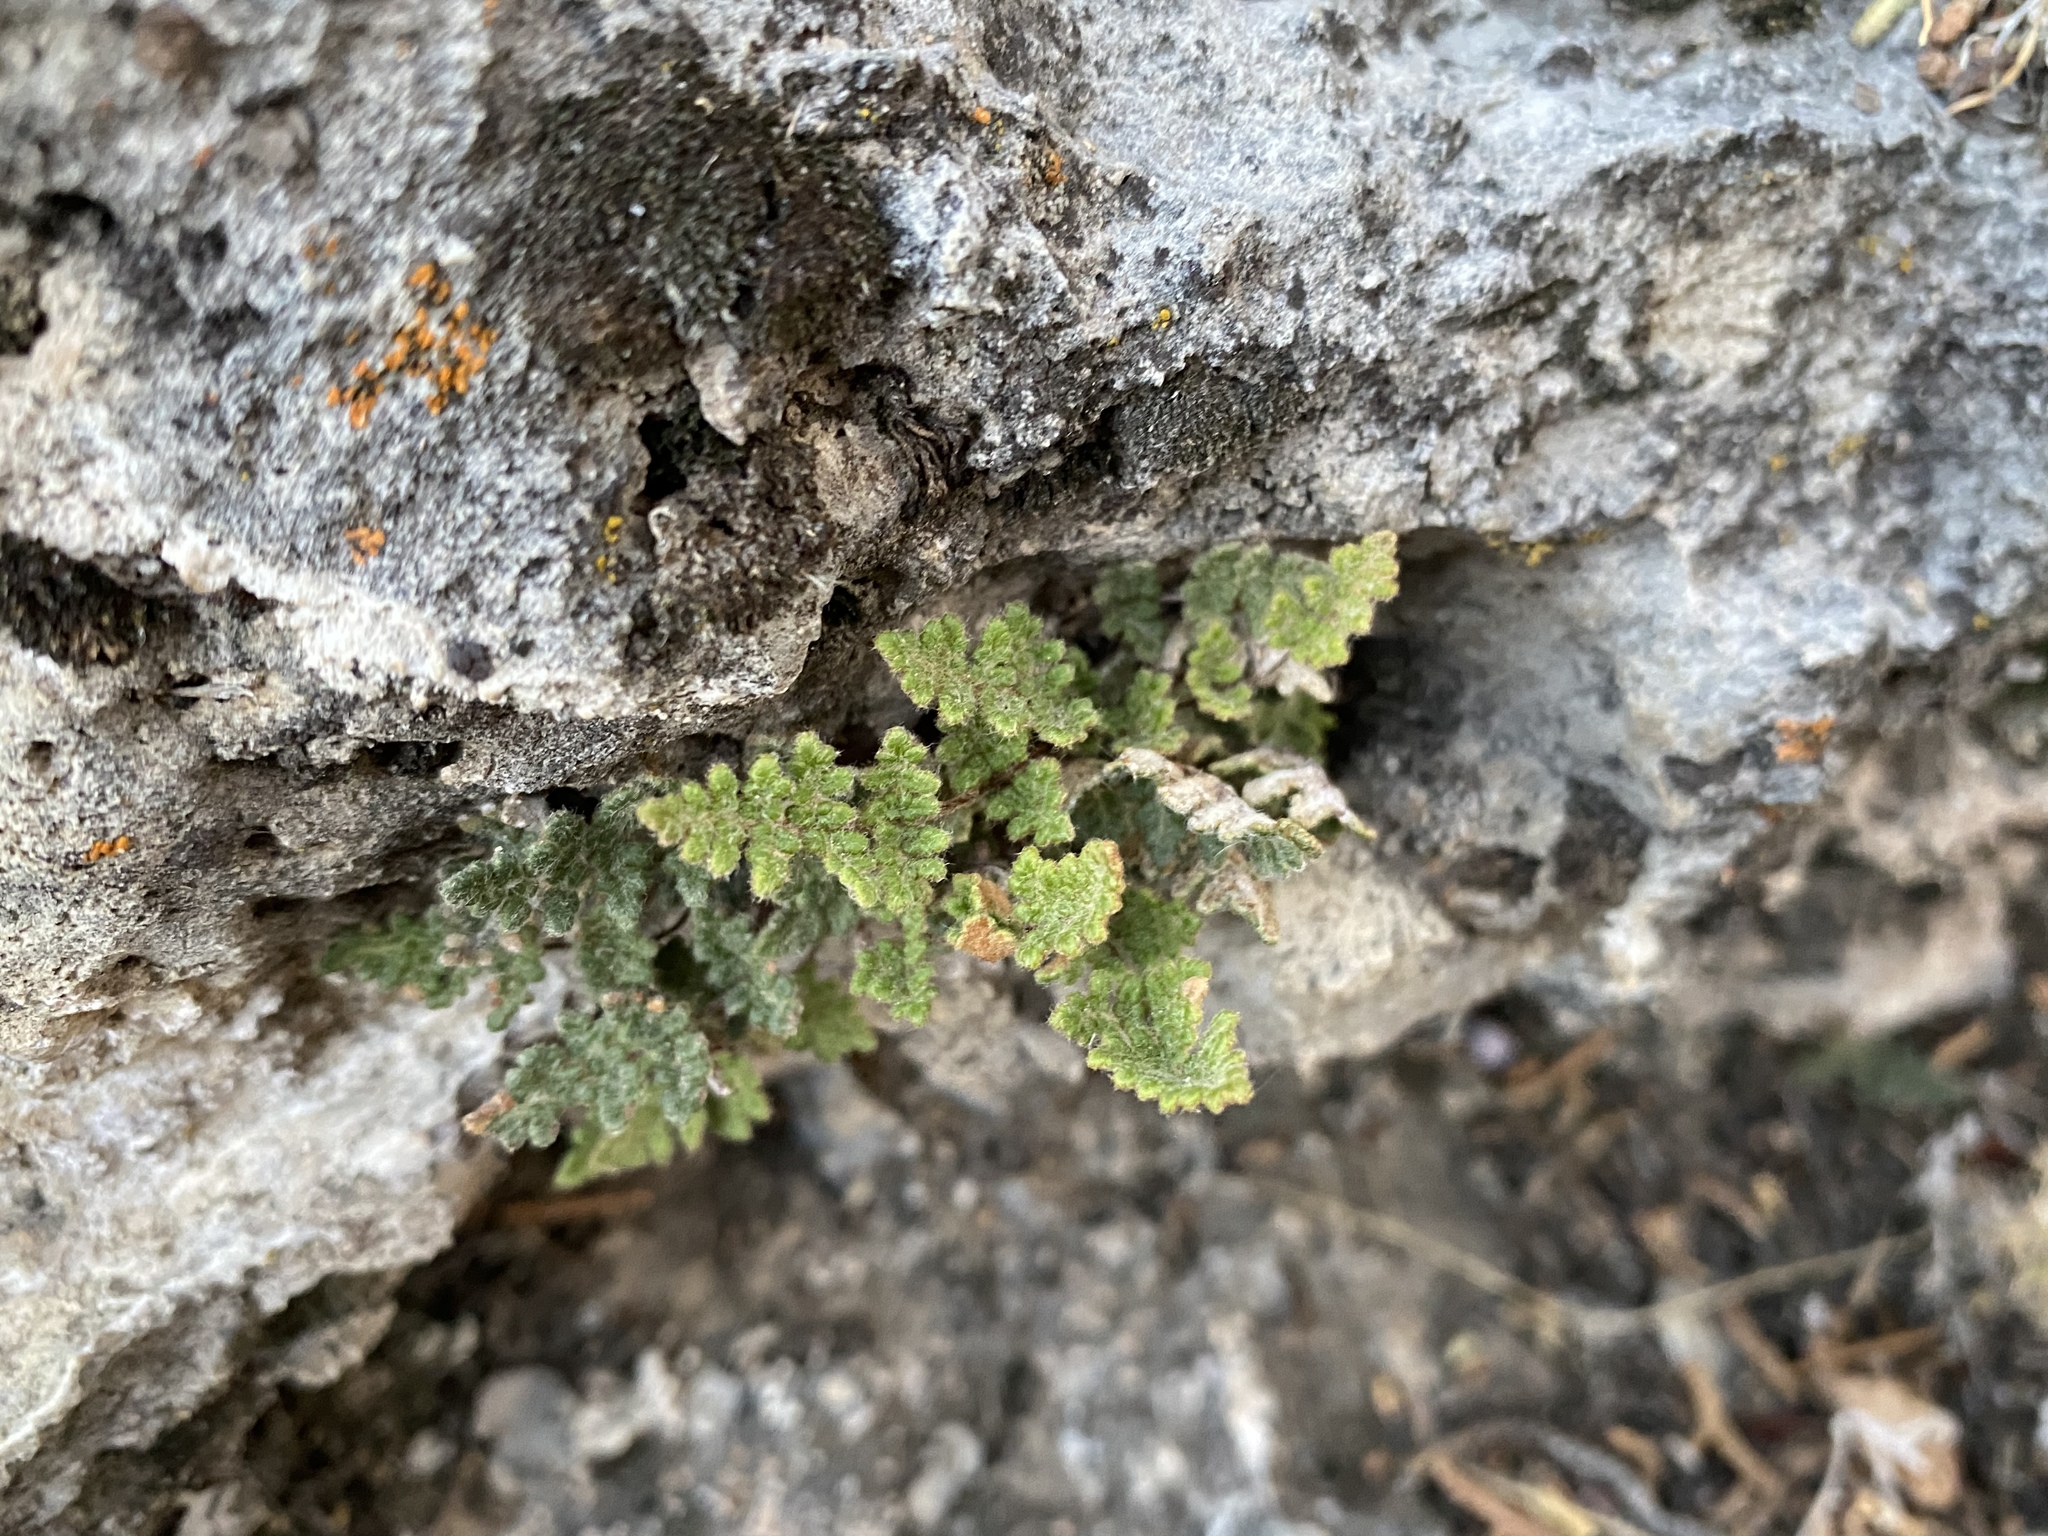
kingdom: Plantae
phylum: Tracheophyta
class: Polypodiopsida
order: Polypodiales
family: Pteridaceae
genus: Myriopteris
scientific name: Myriopteris gracilis
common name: Fee's lip fern
